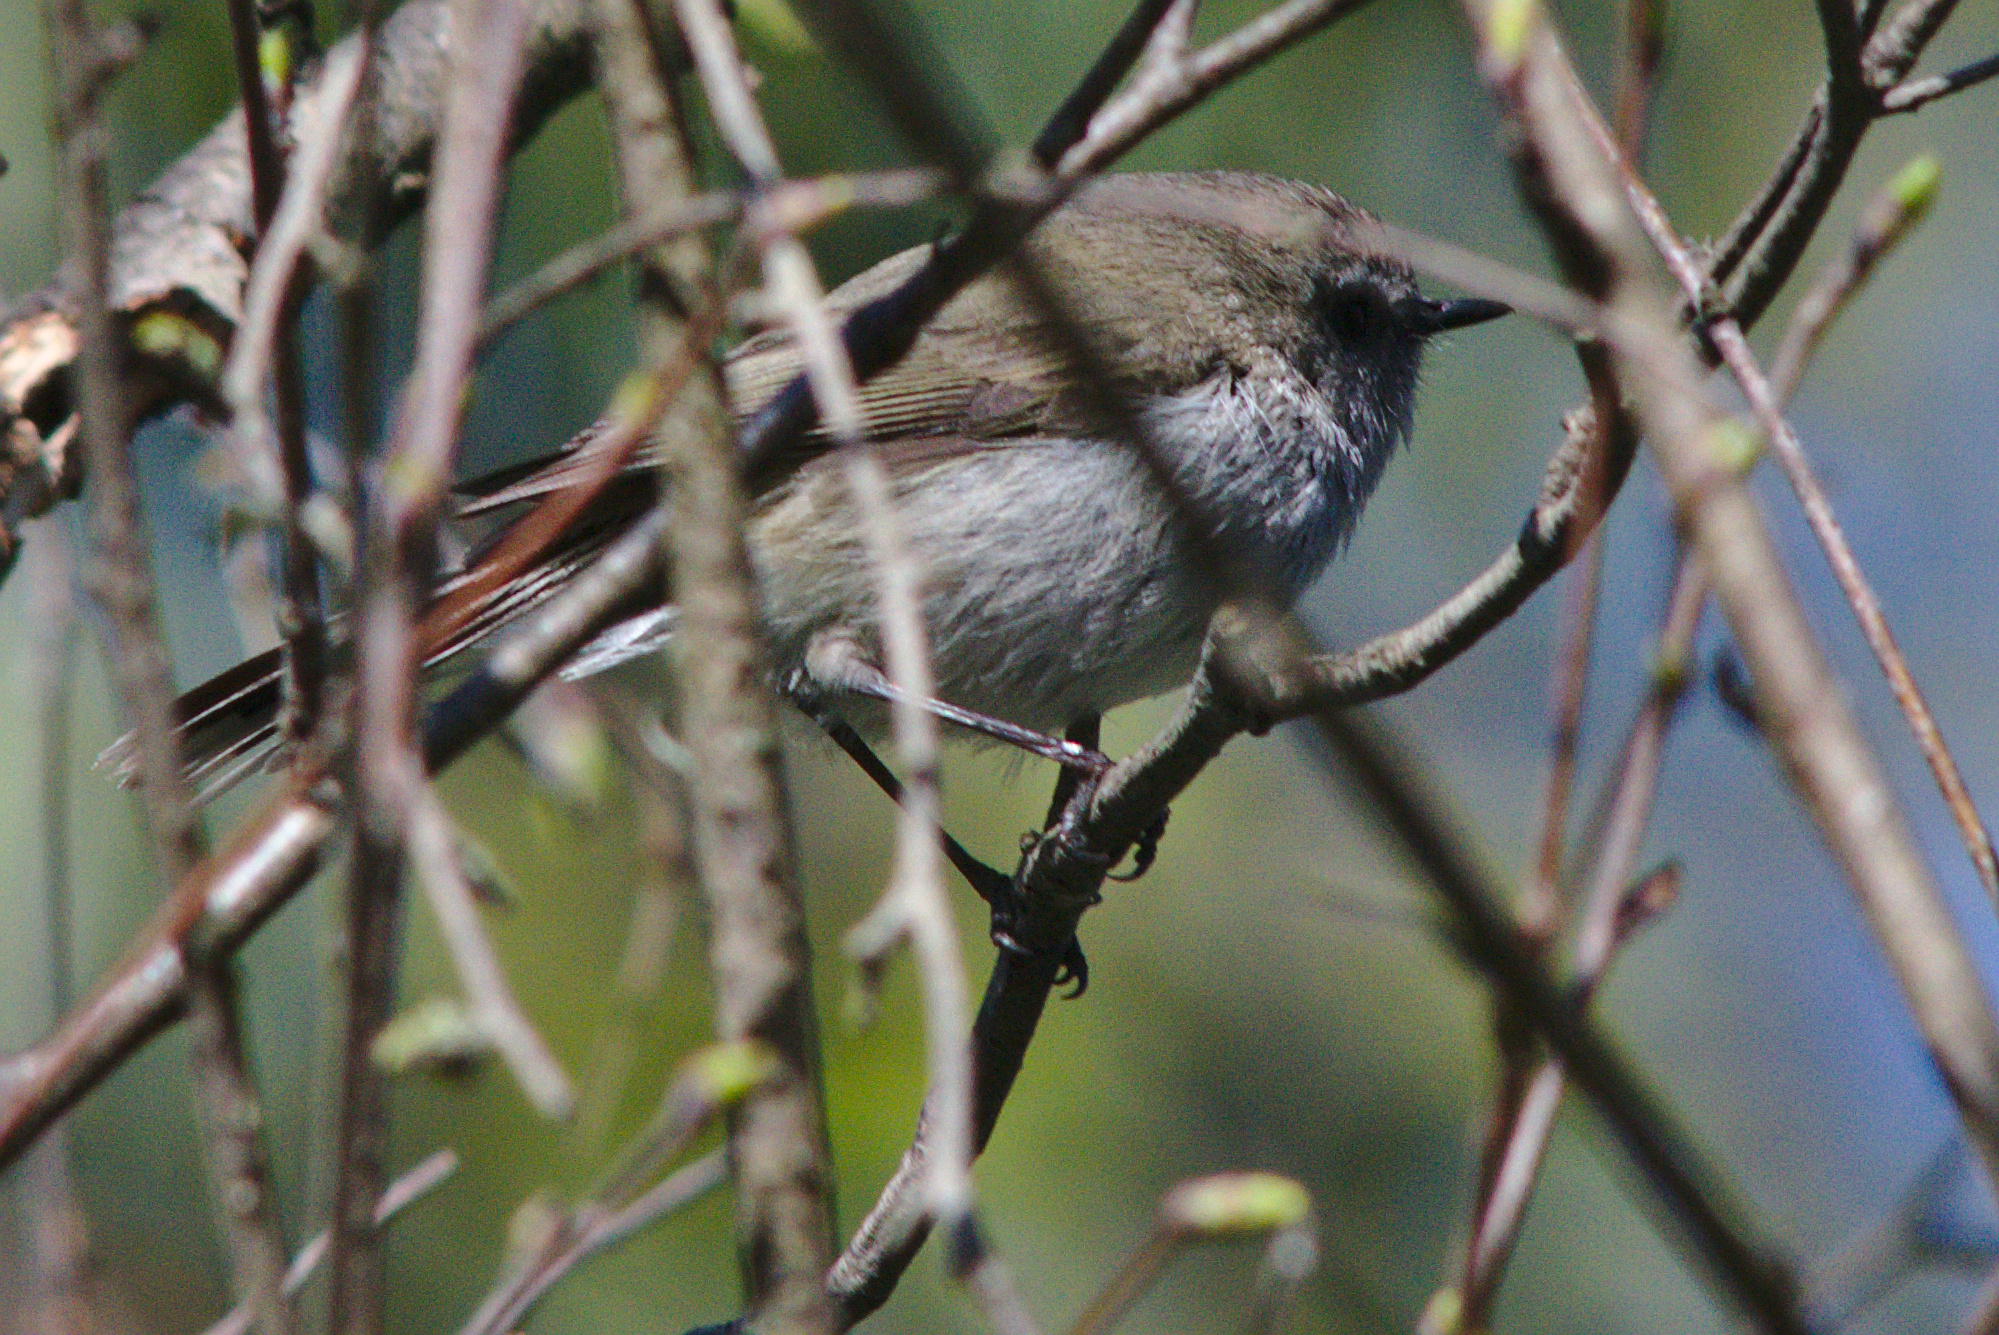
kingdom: Animalia
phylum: Chordata
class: Aves
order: Passeriformes
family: Acanthizidae
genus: Gerygone
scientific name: Gerygone igata
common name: Grey gerygone
